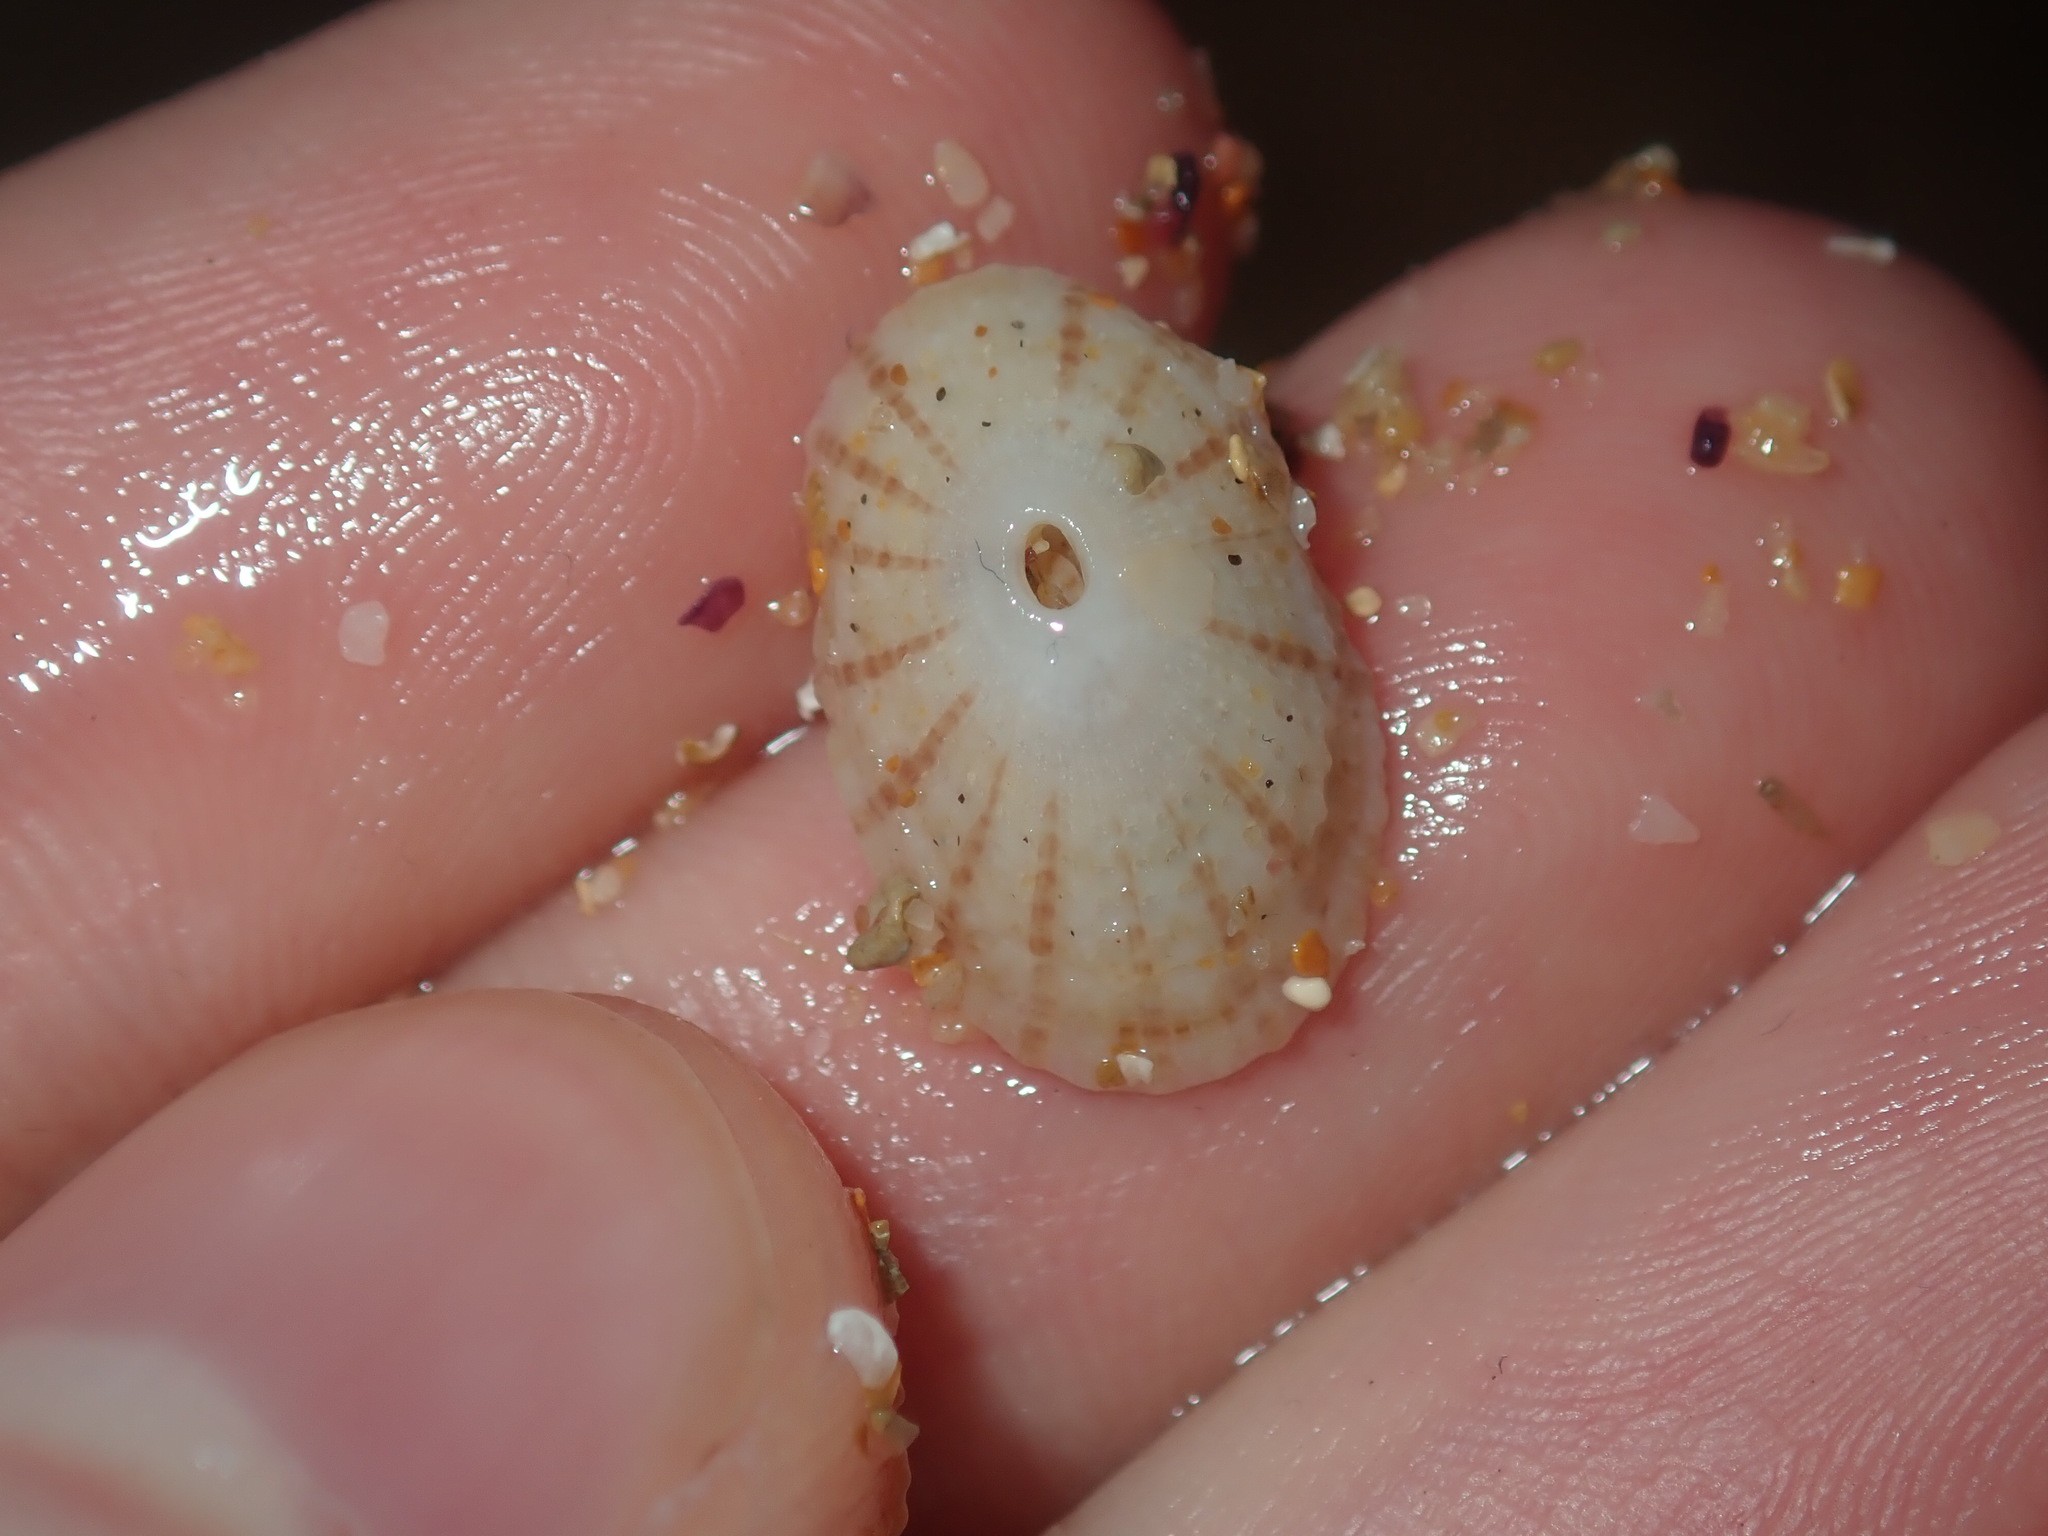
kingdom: Animalia
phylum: Mollusca
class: Gastropoda
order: Lepetellida
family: Fissurellidae
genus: Diodora
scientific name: Diodora lineata
